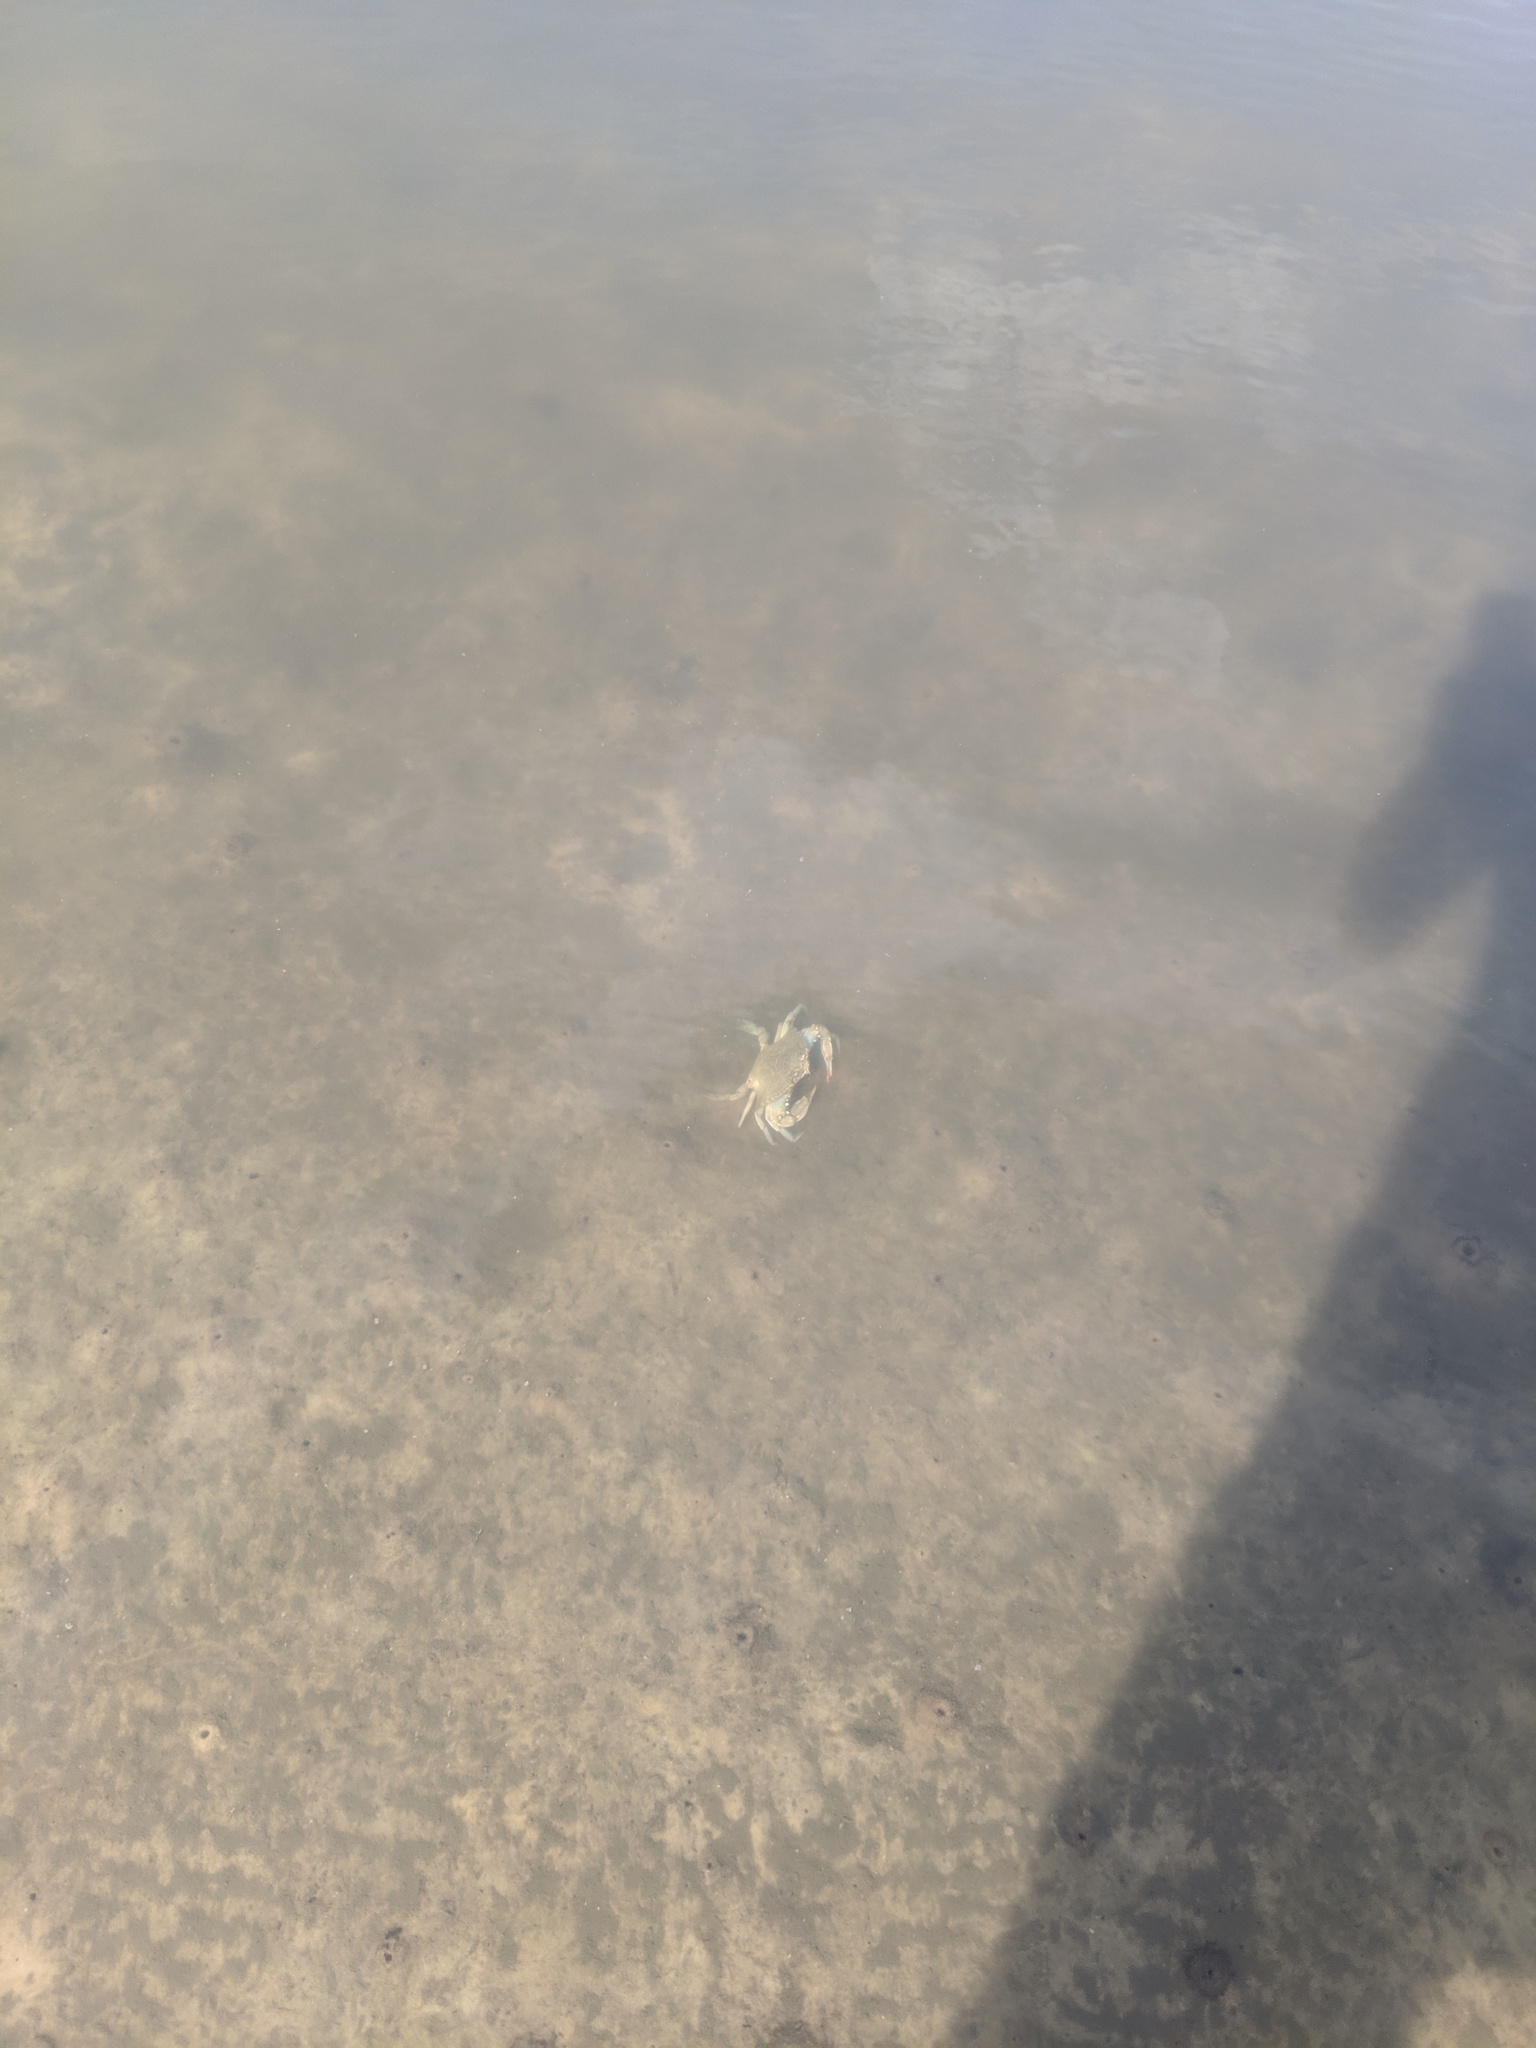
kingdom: Animalia
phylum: Arthropoda
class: Malacostraca
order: Decapoda
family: Portunidae
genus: Callinectes
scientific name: Callinectes sapidus
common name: Blue crab
